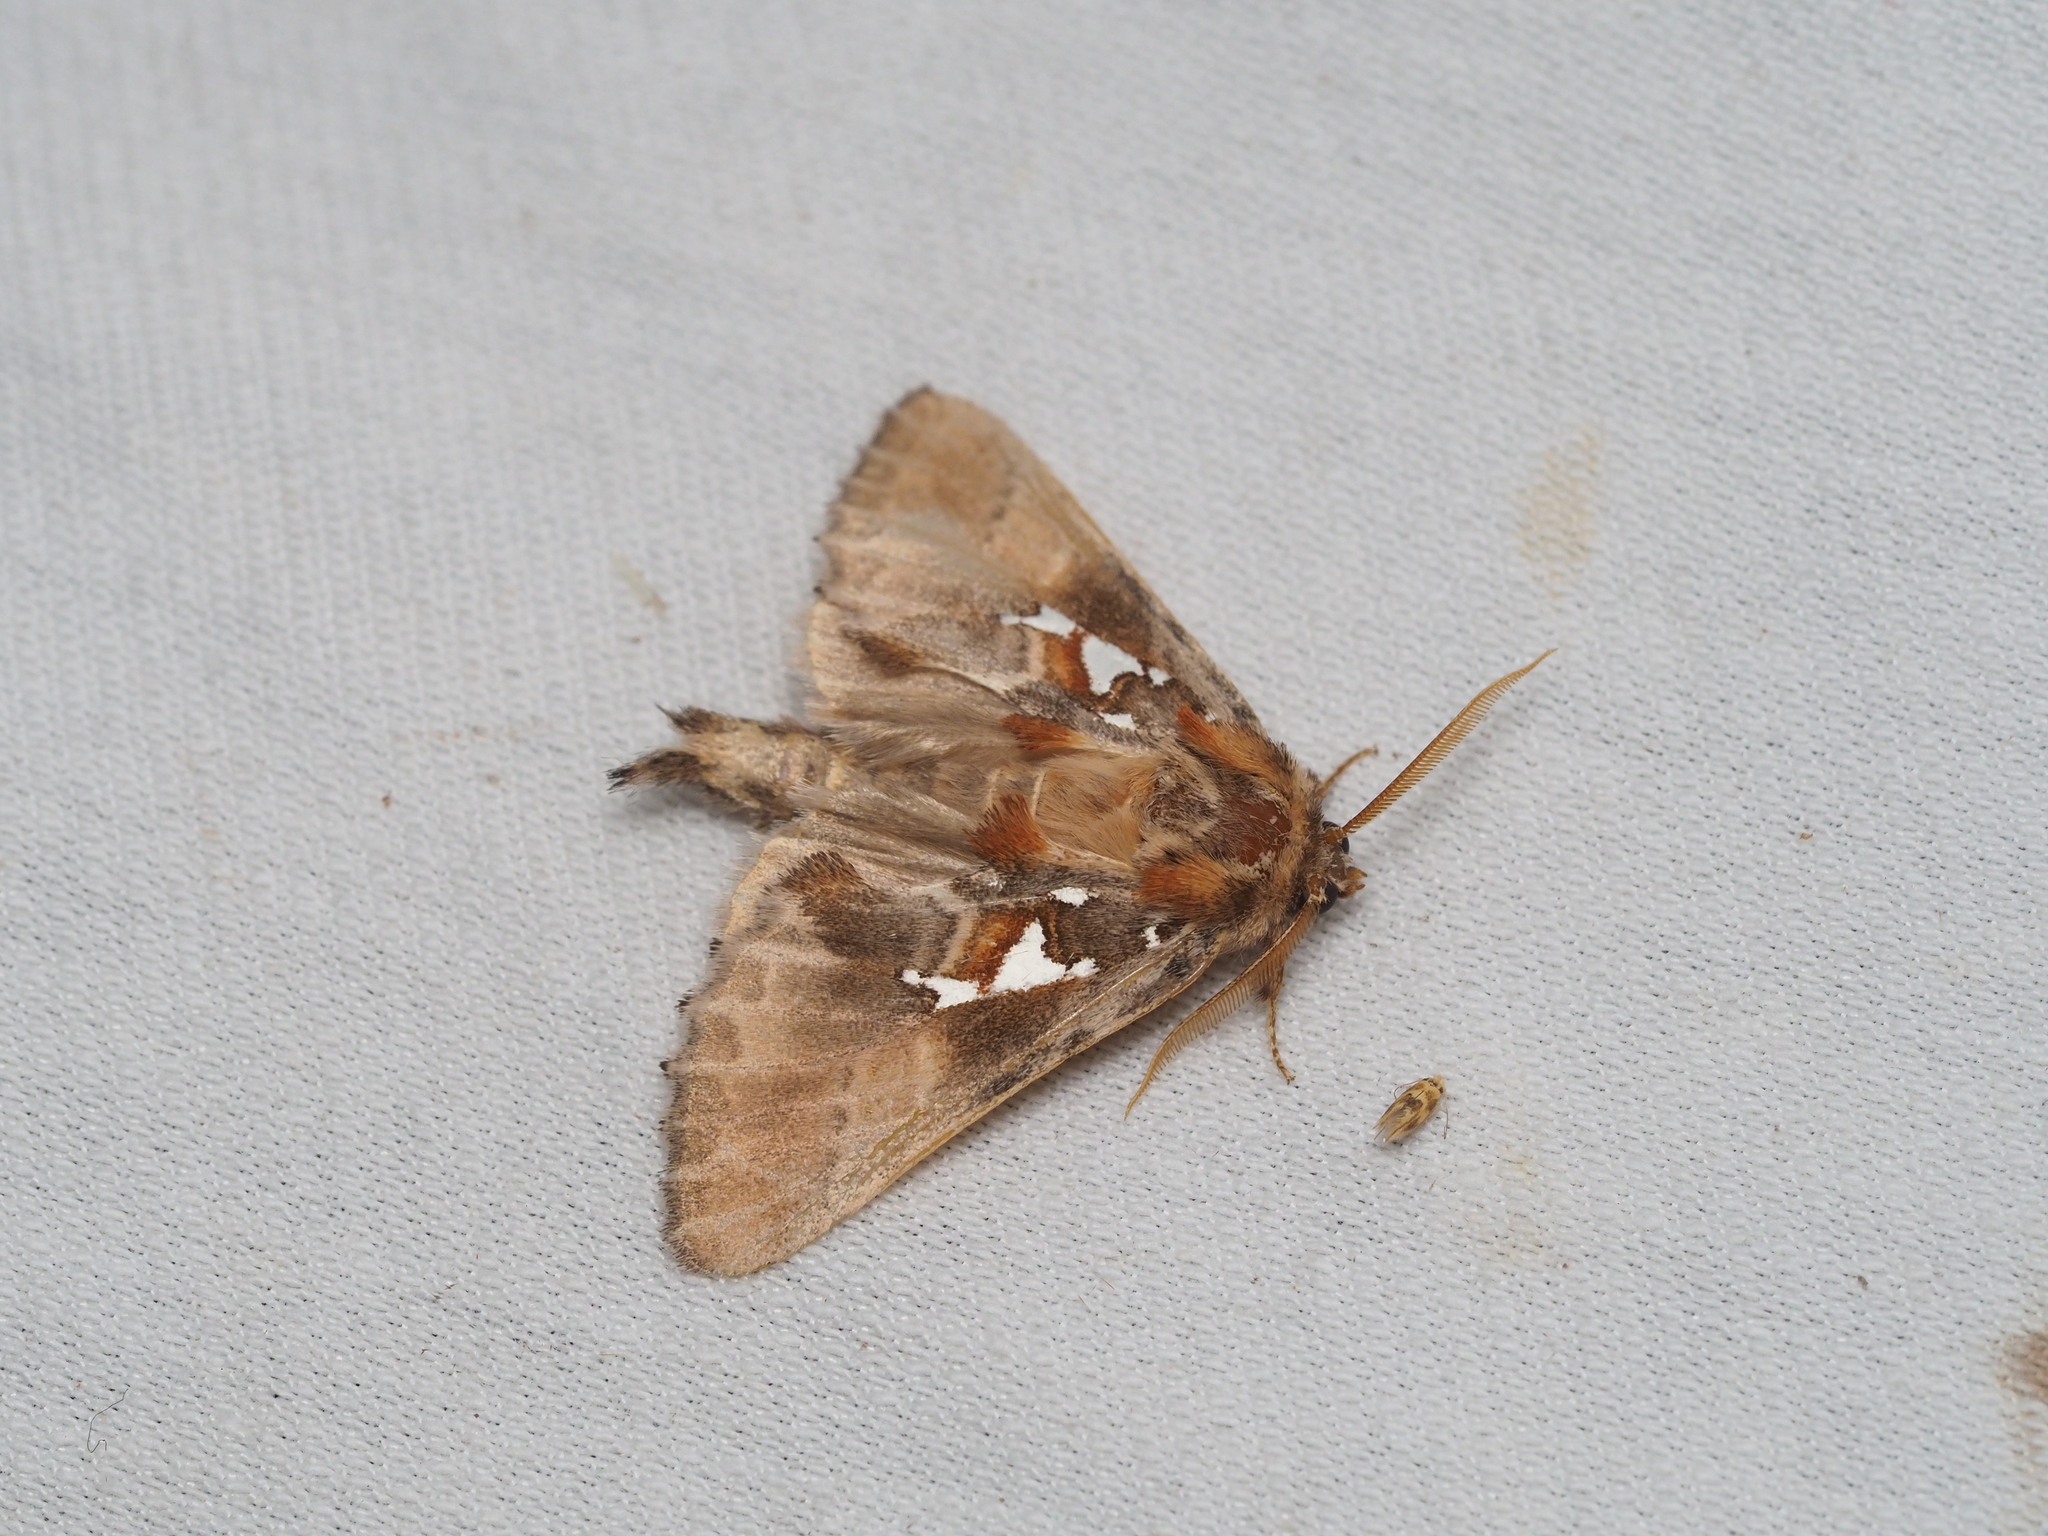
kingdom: Animalia
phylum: Arthropoda
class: Insecta
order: Lepidoptera
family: Notodontidae
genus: Spatalia
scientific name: Spatalia argentina
